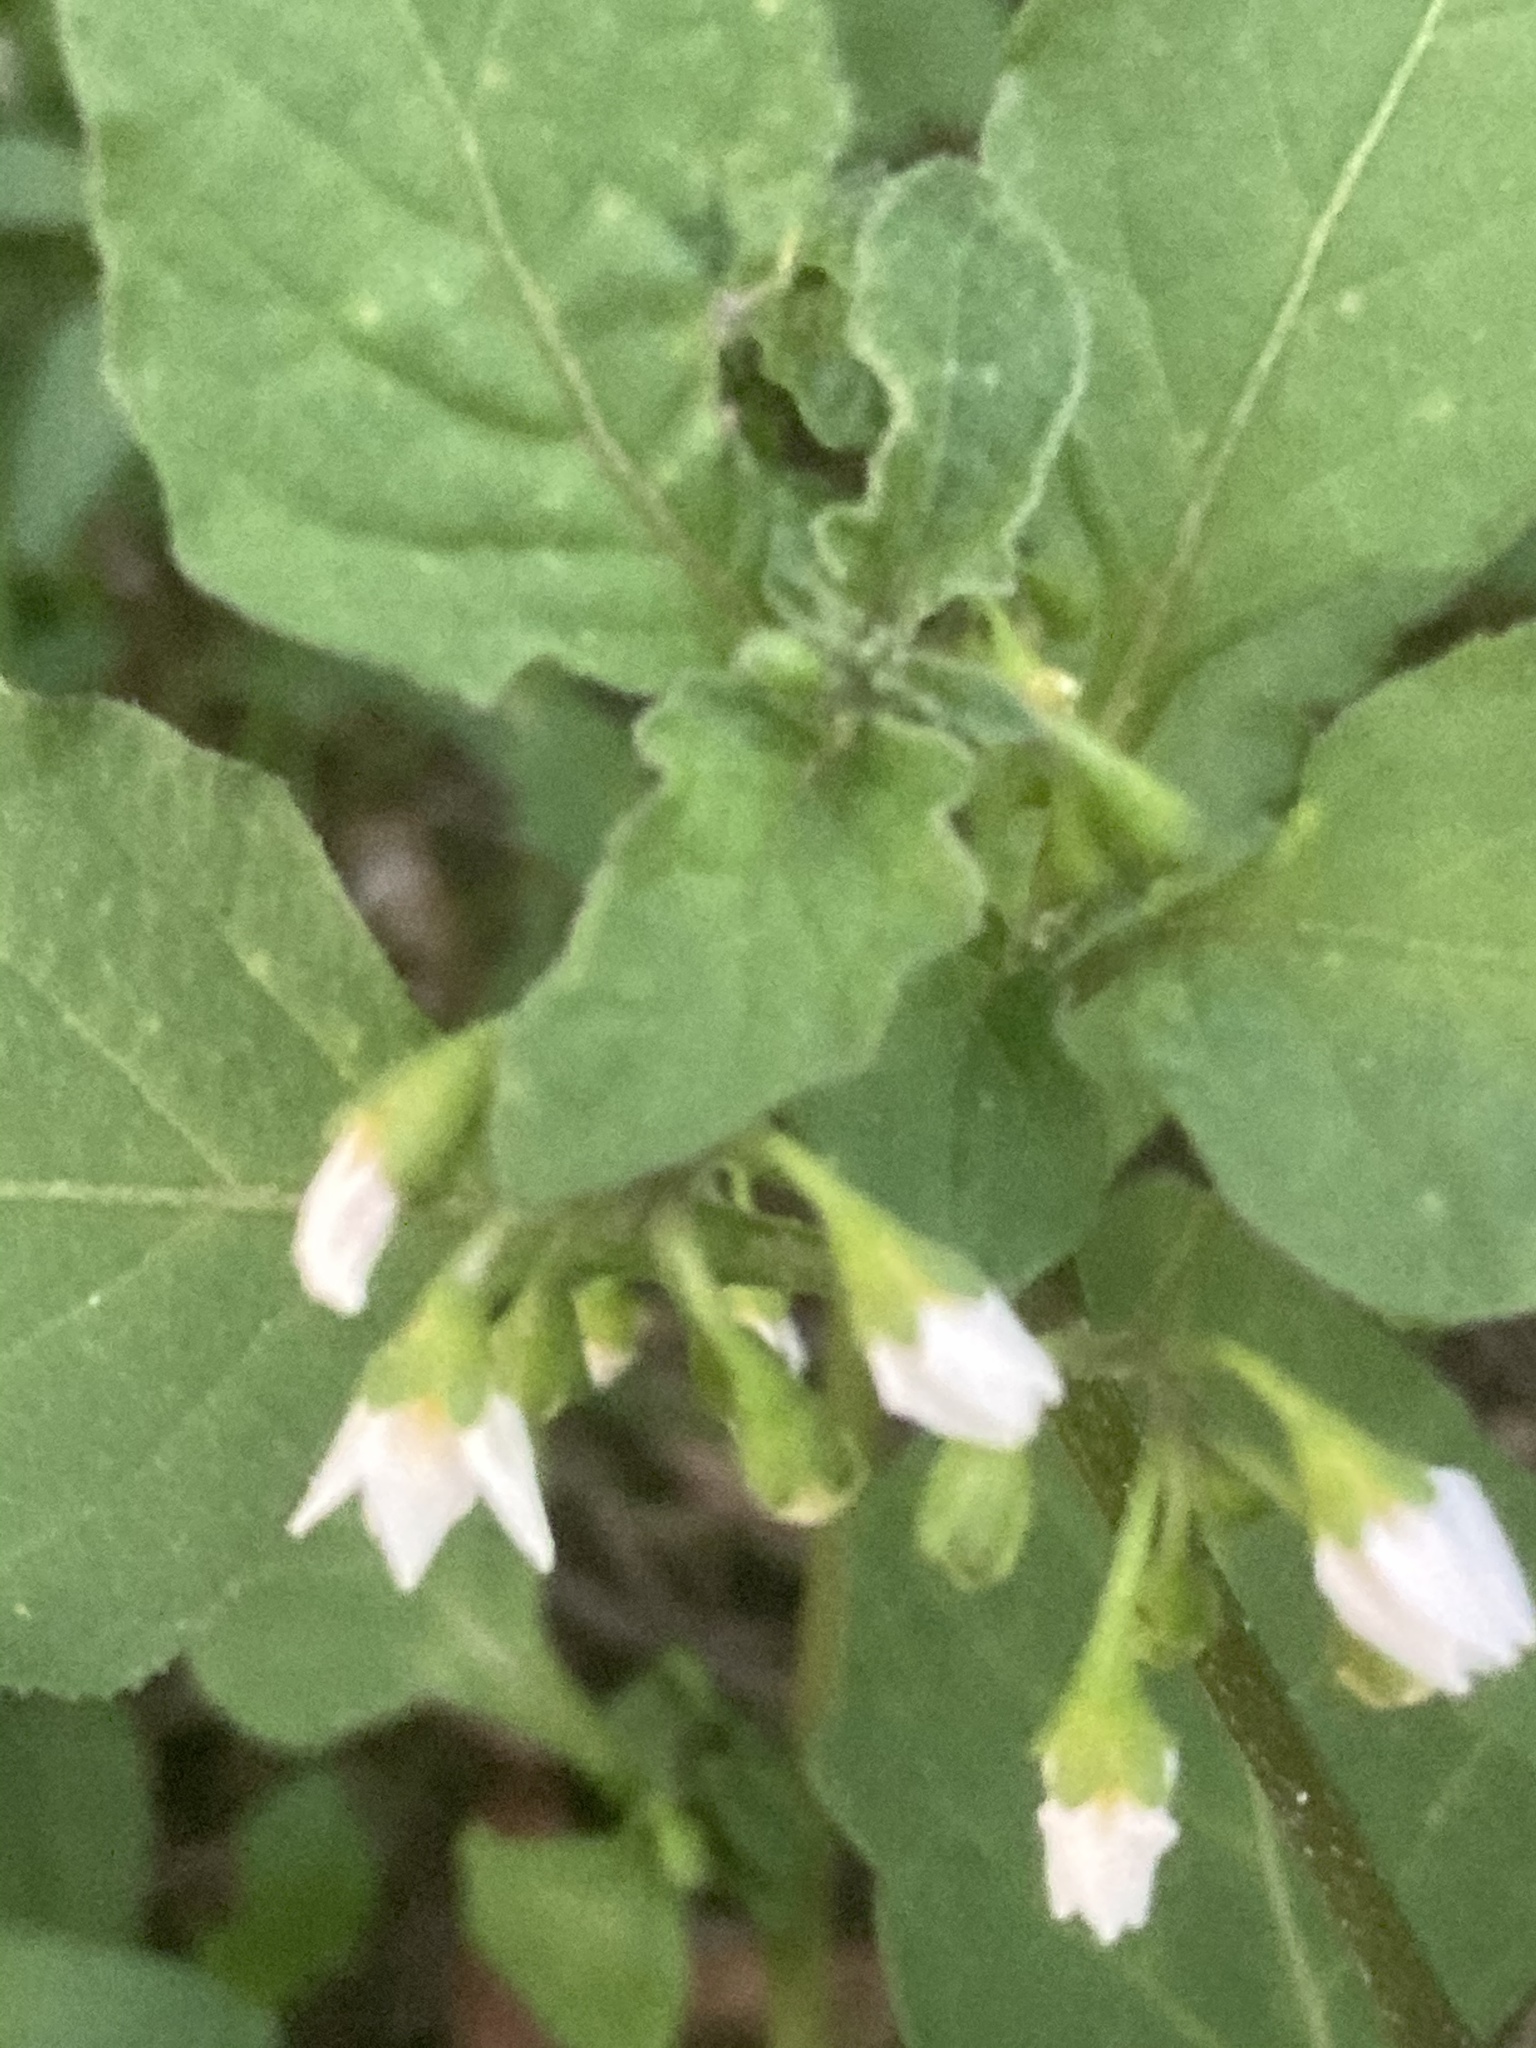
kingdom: Plantae
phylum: Tracheophyta
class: Magnoliopsida
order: Solanales
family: Solanaceae
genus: Solanum
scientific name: Solanum nigrum
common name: Black nightshade
